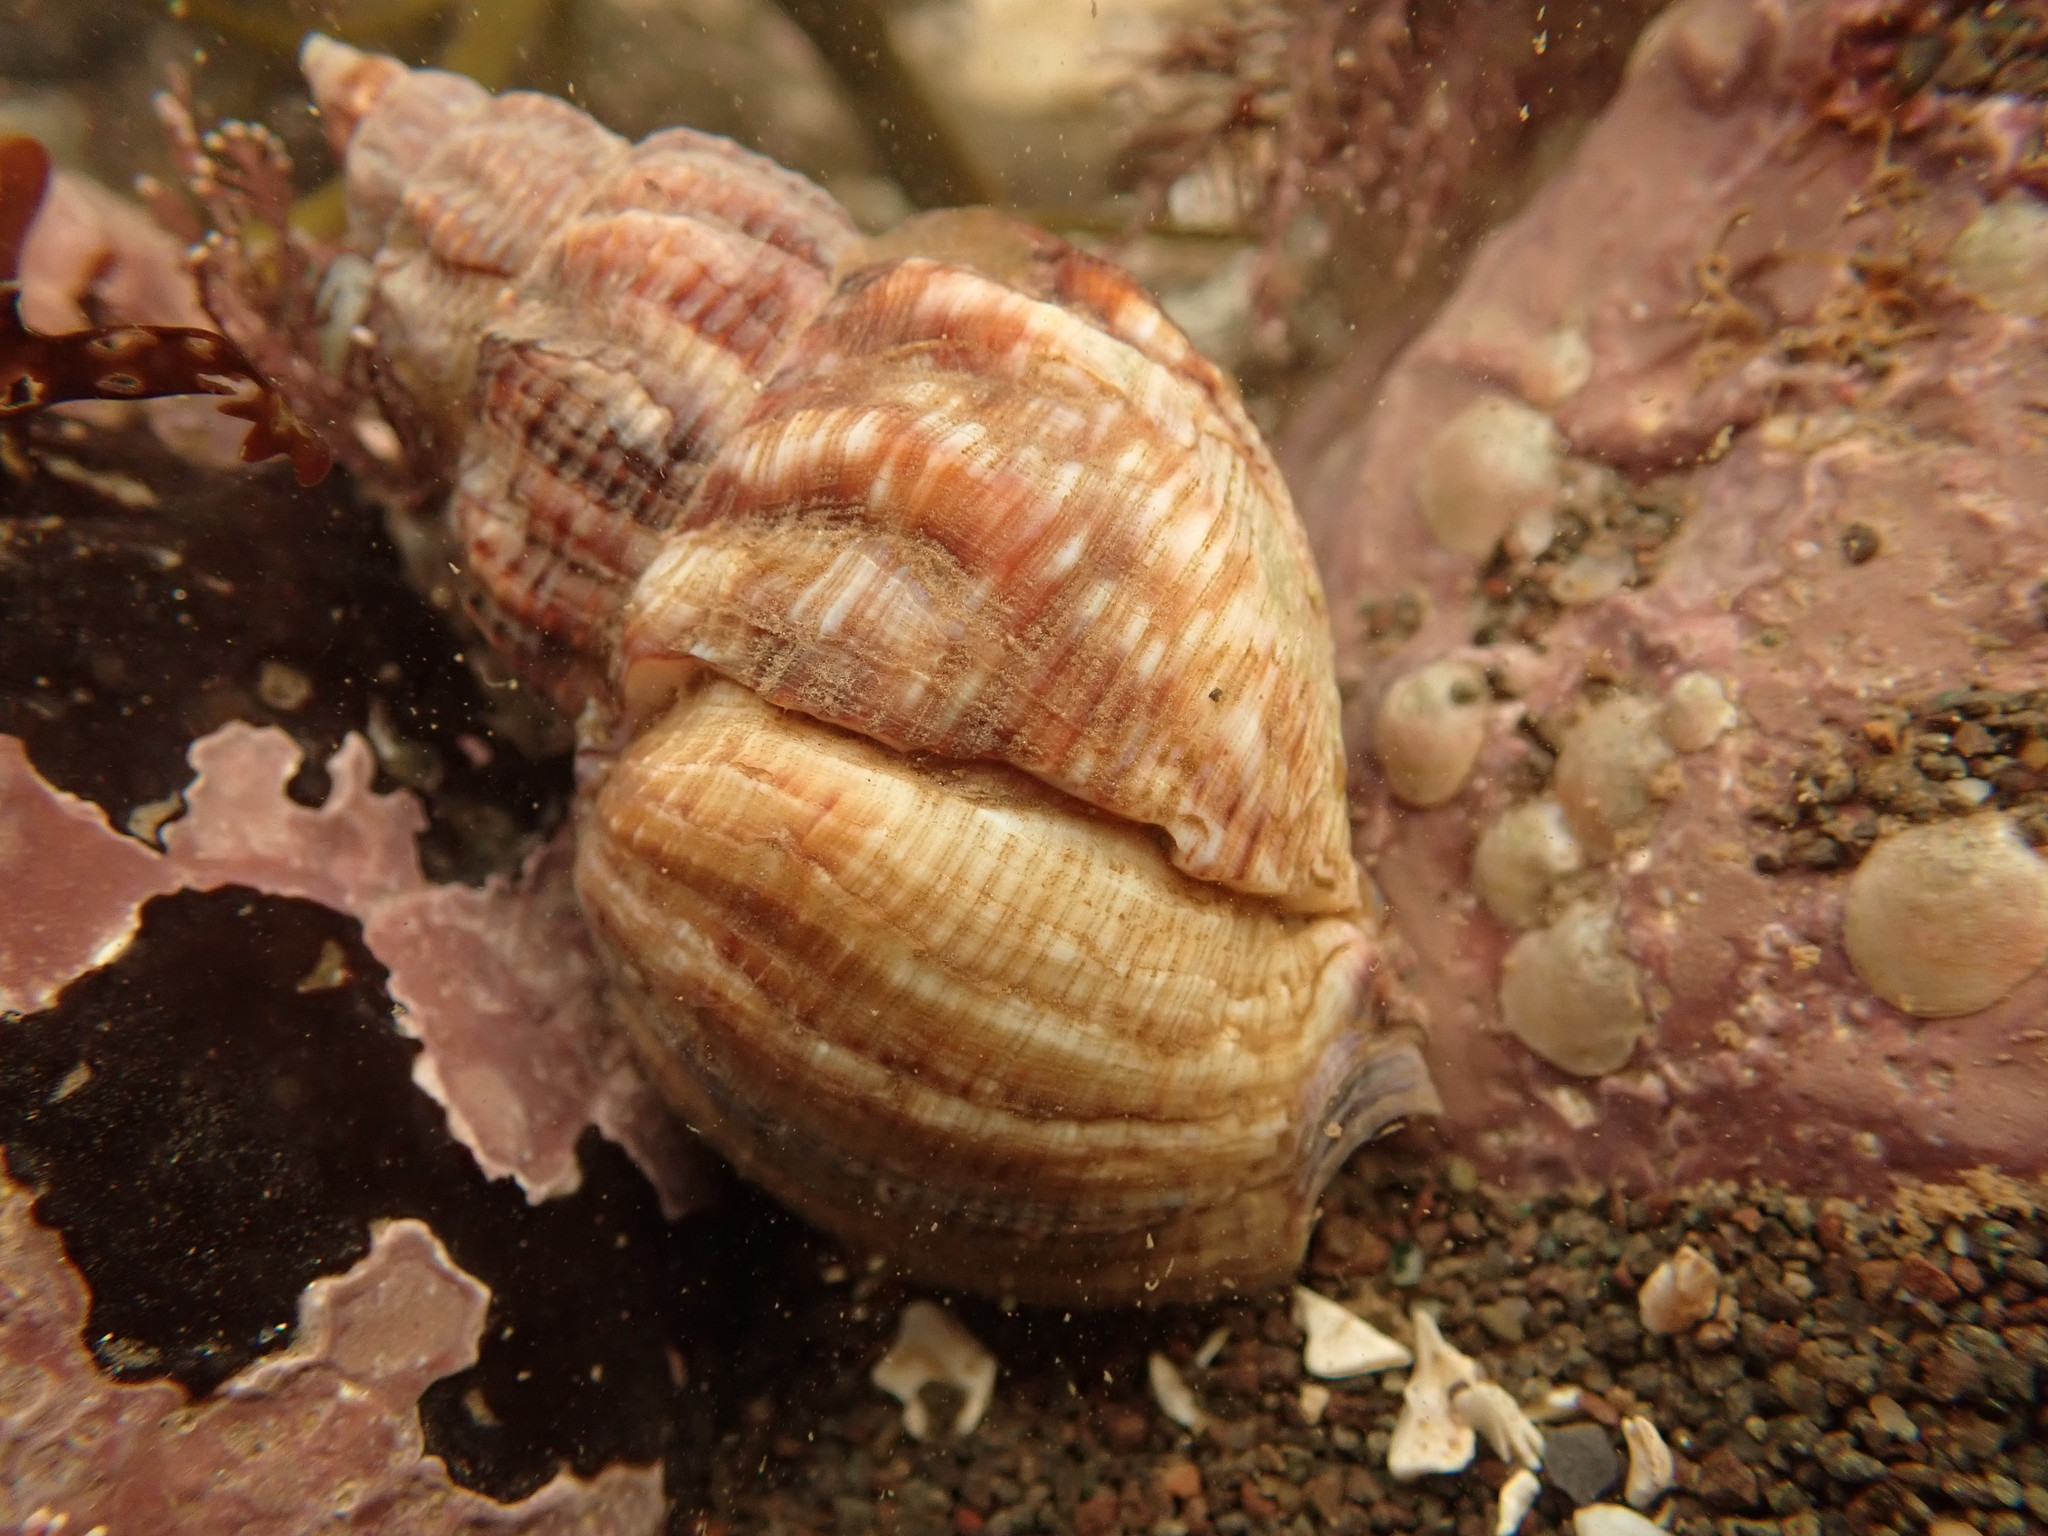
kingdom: Animalia
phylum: Mollusca
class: Gastropoda
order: Neogastropoda
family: Buccinidae
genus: Buccinum
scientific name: Buccinum undatum
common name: Common whelk
